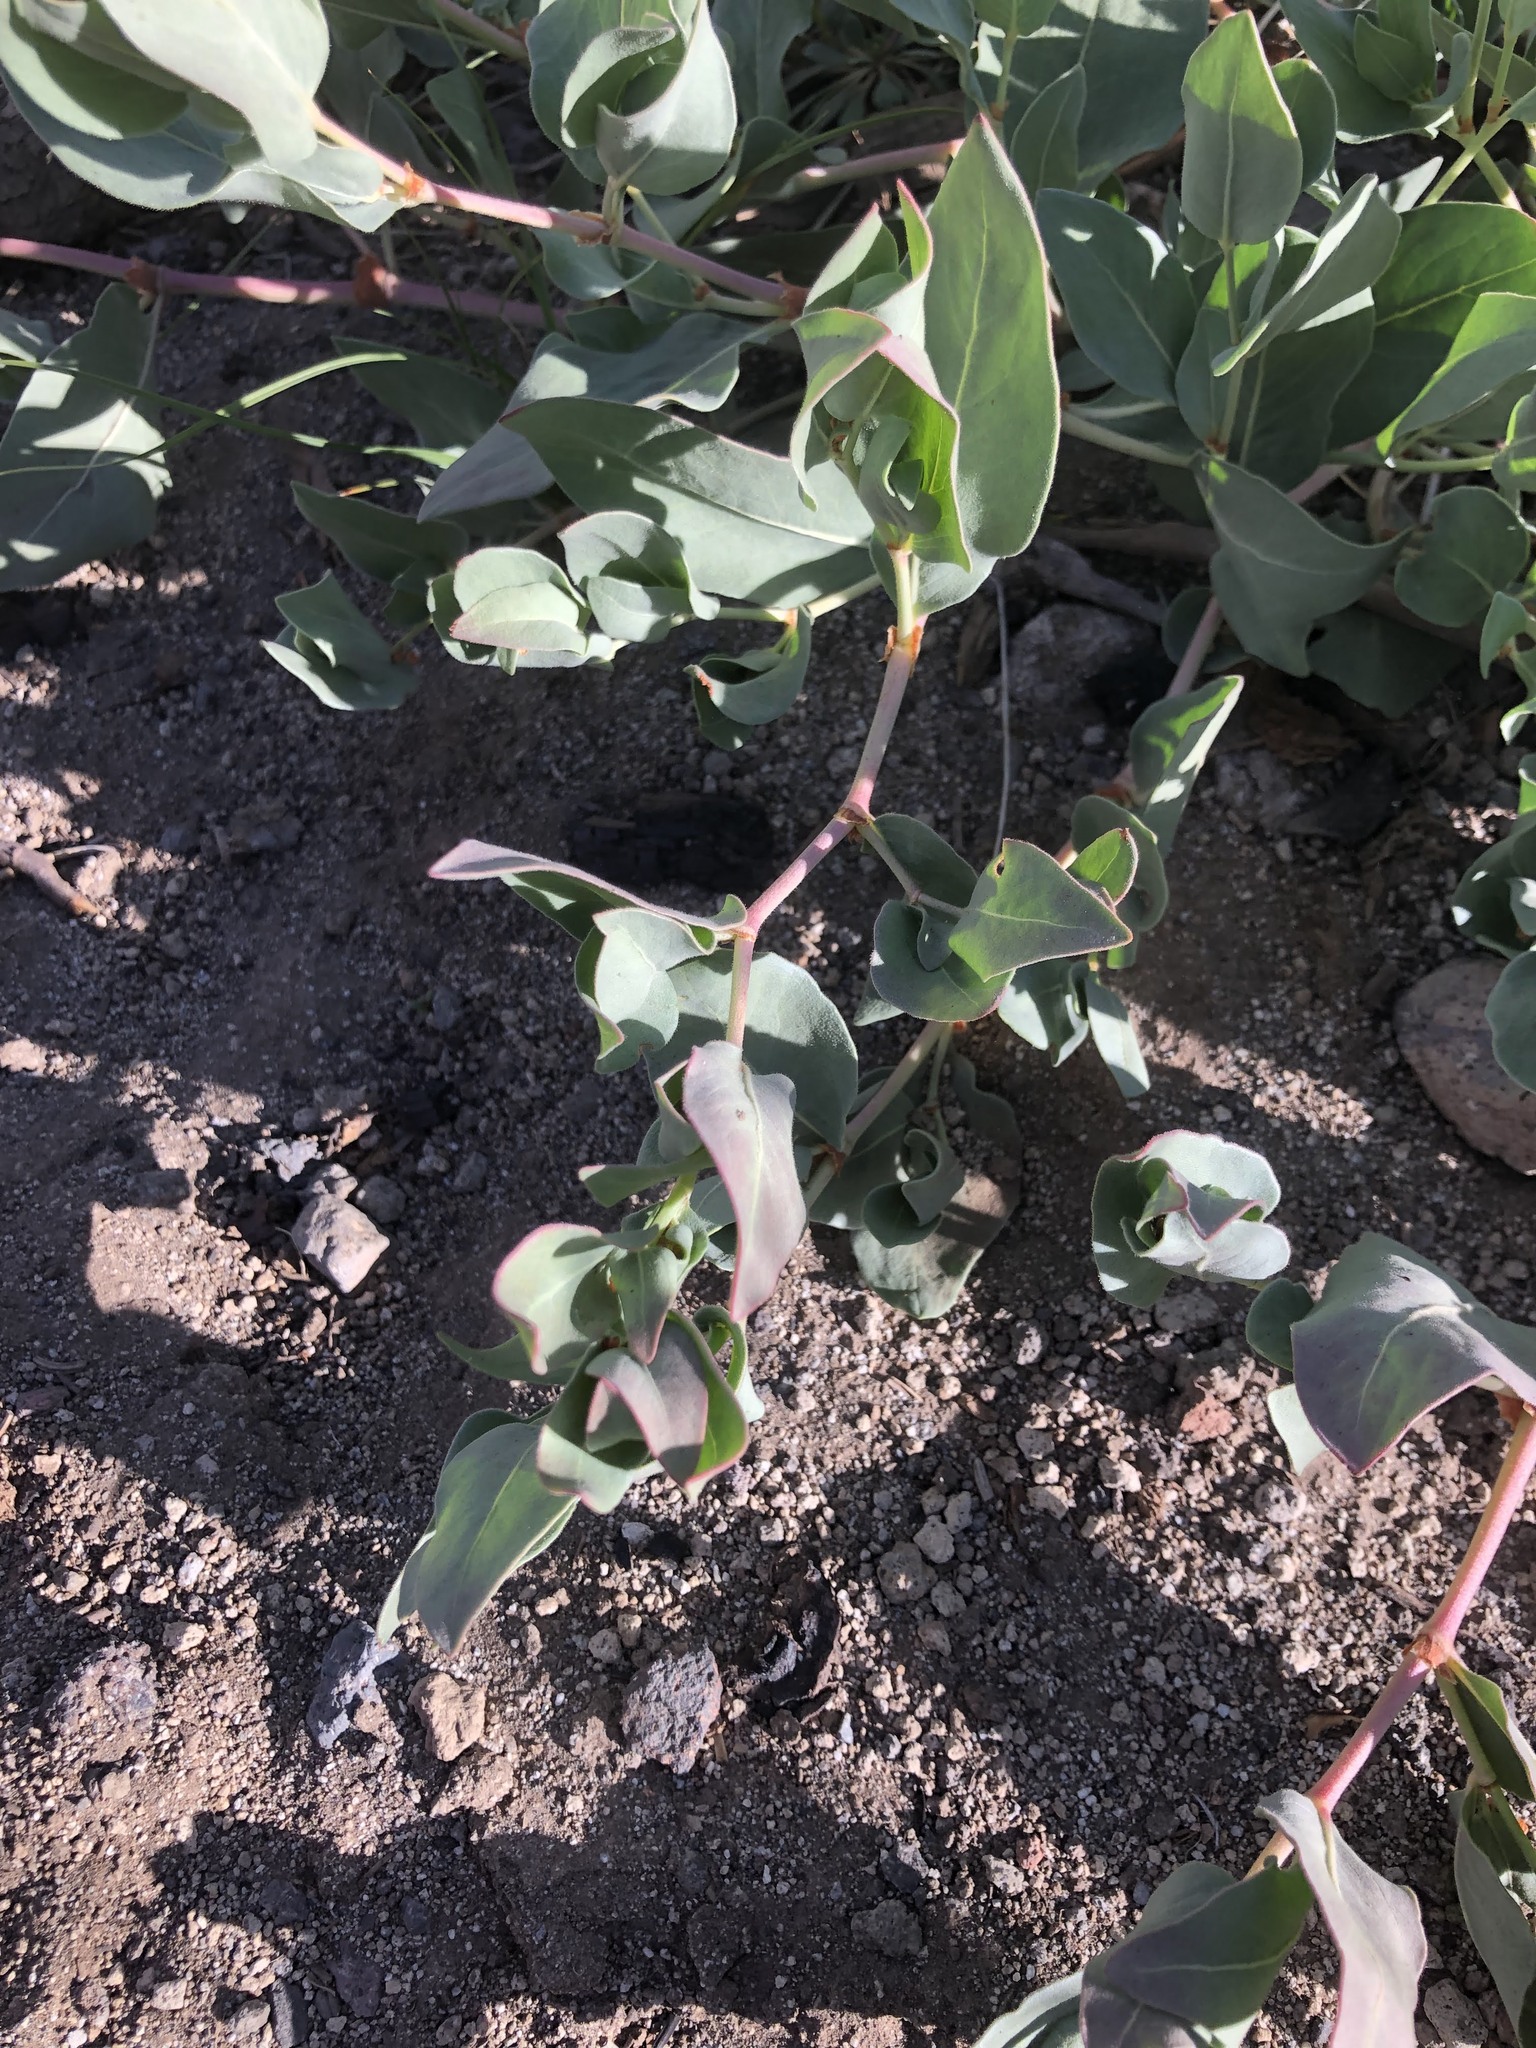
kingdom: Plantae
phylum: Tracheophyta
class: Magnoliopsida
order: Caryophyllales
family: Polygonaceae
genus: Koenigia
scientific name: Koenigia davisiae
